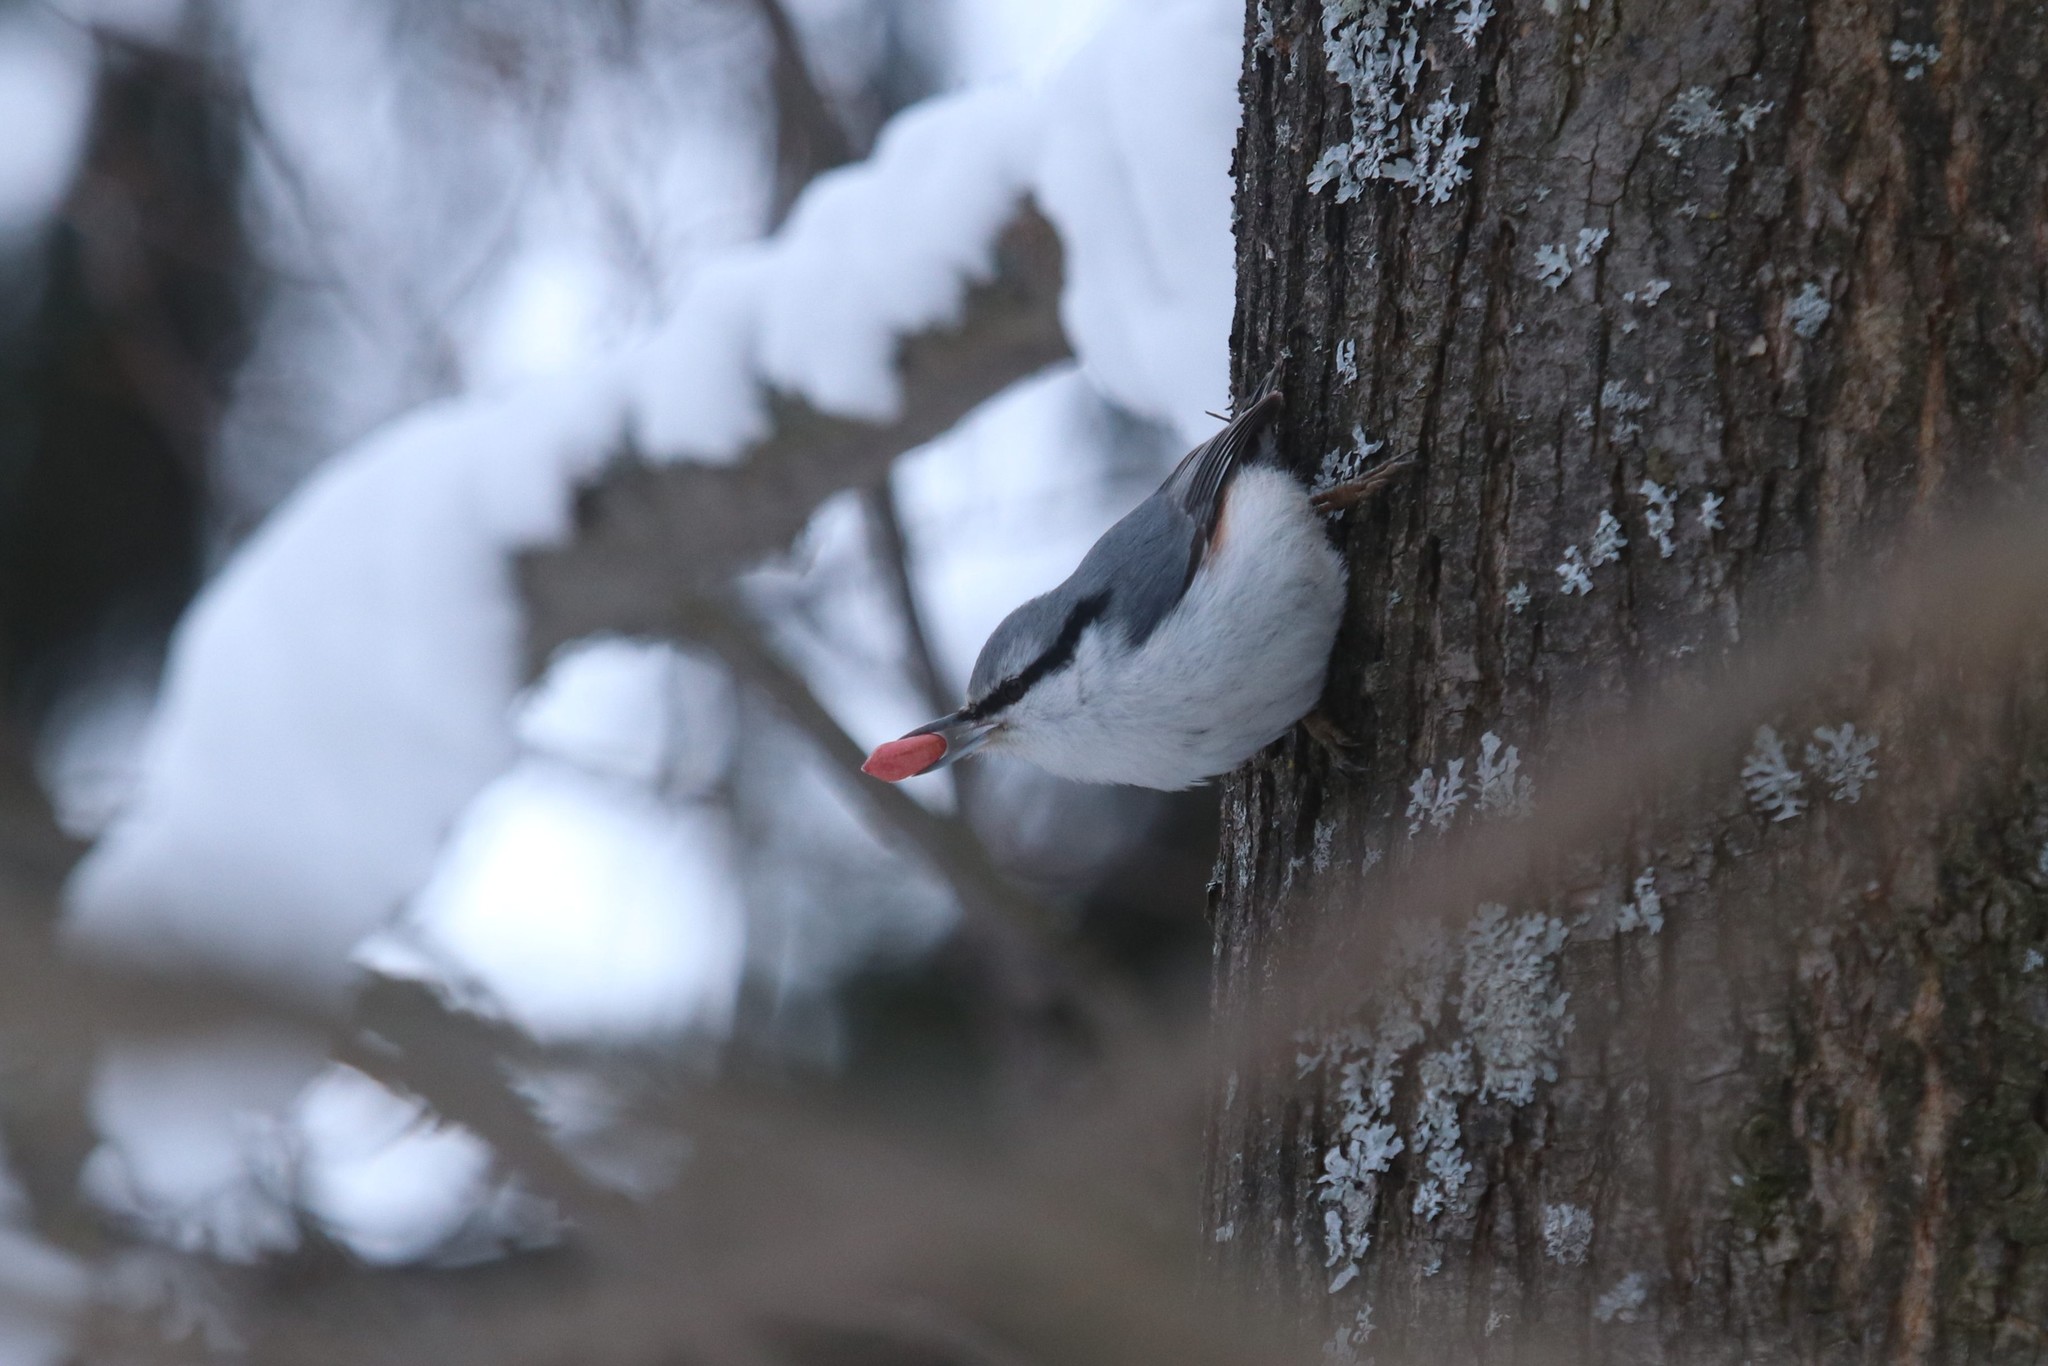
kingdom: Animalia
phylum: Chordata
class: Aves
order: Passeriformes
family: Sittidae
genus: Sitta
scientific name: Sitta europaea
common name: Eurasian nuthatch
